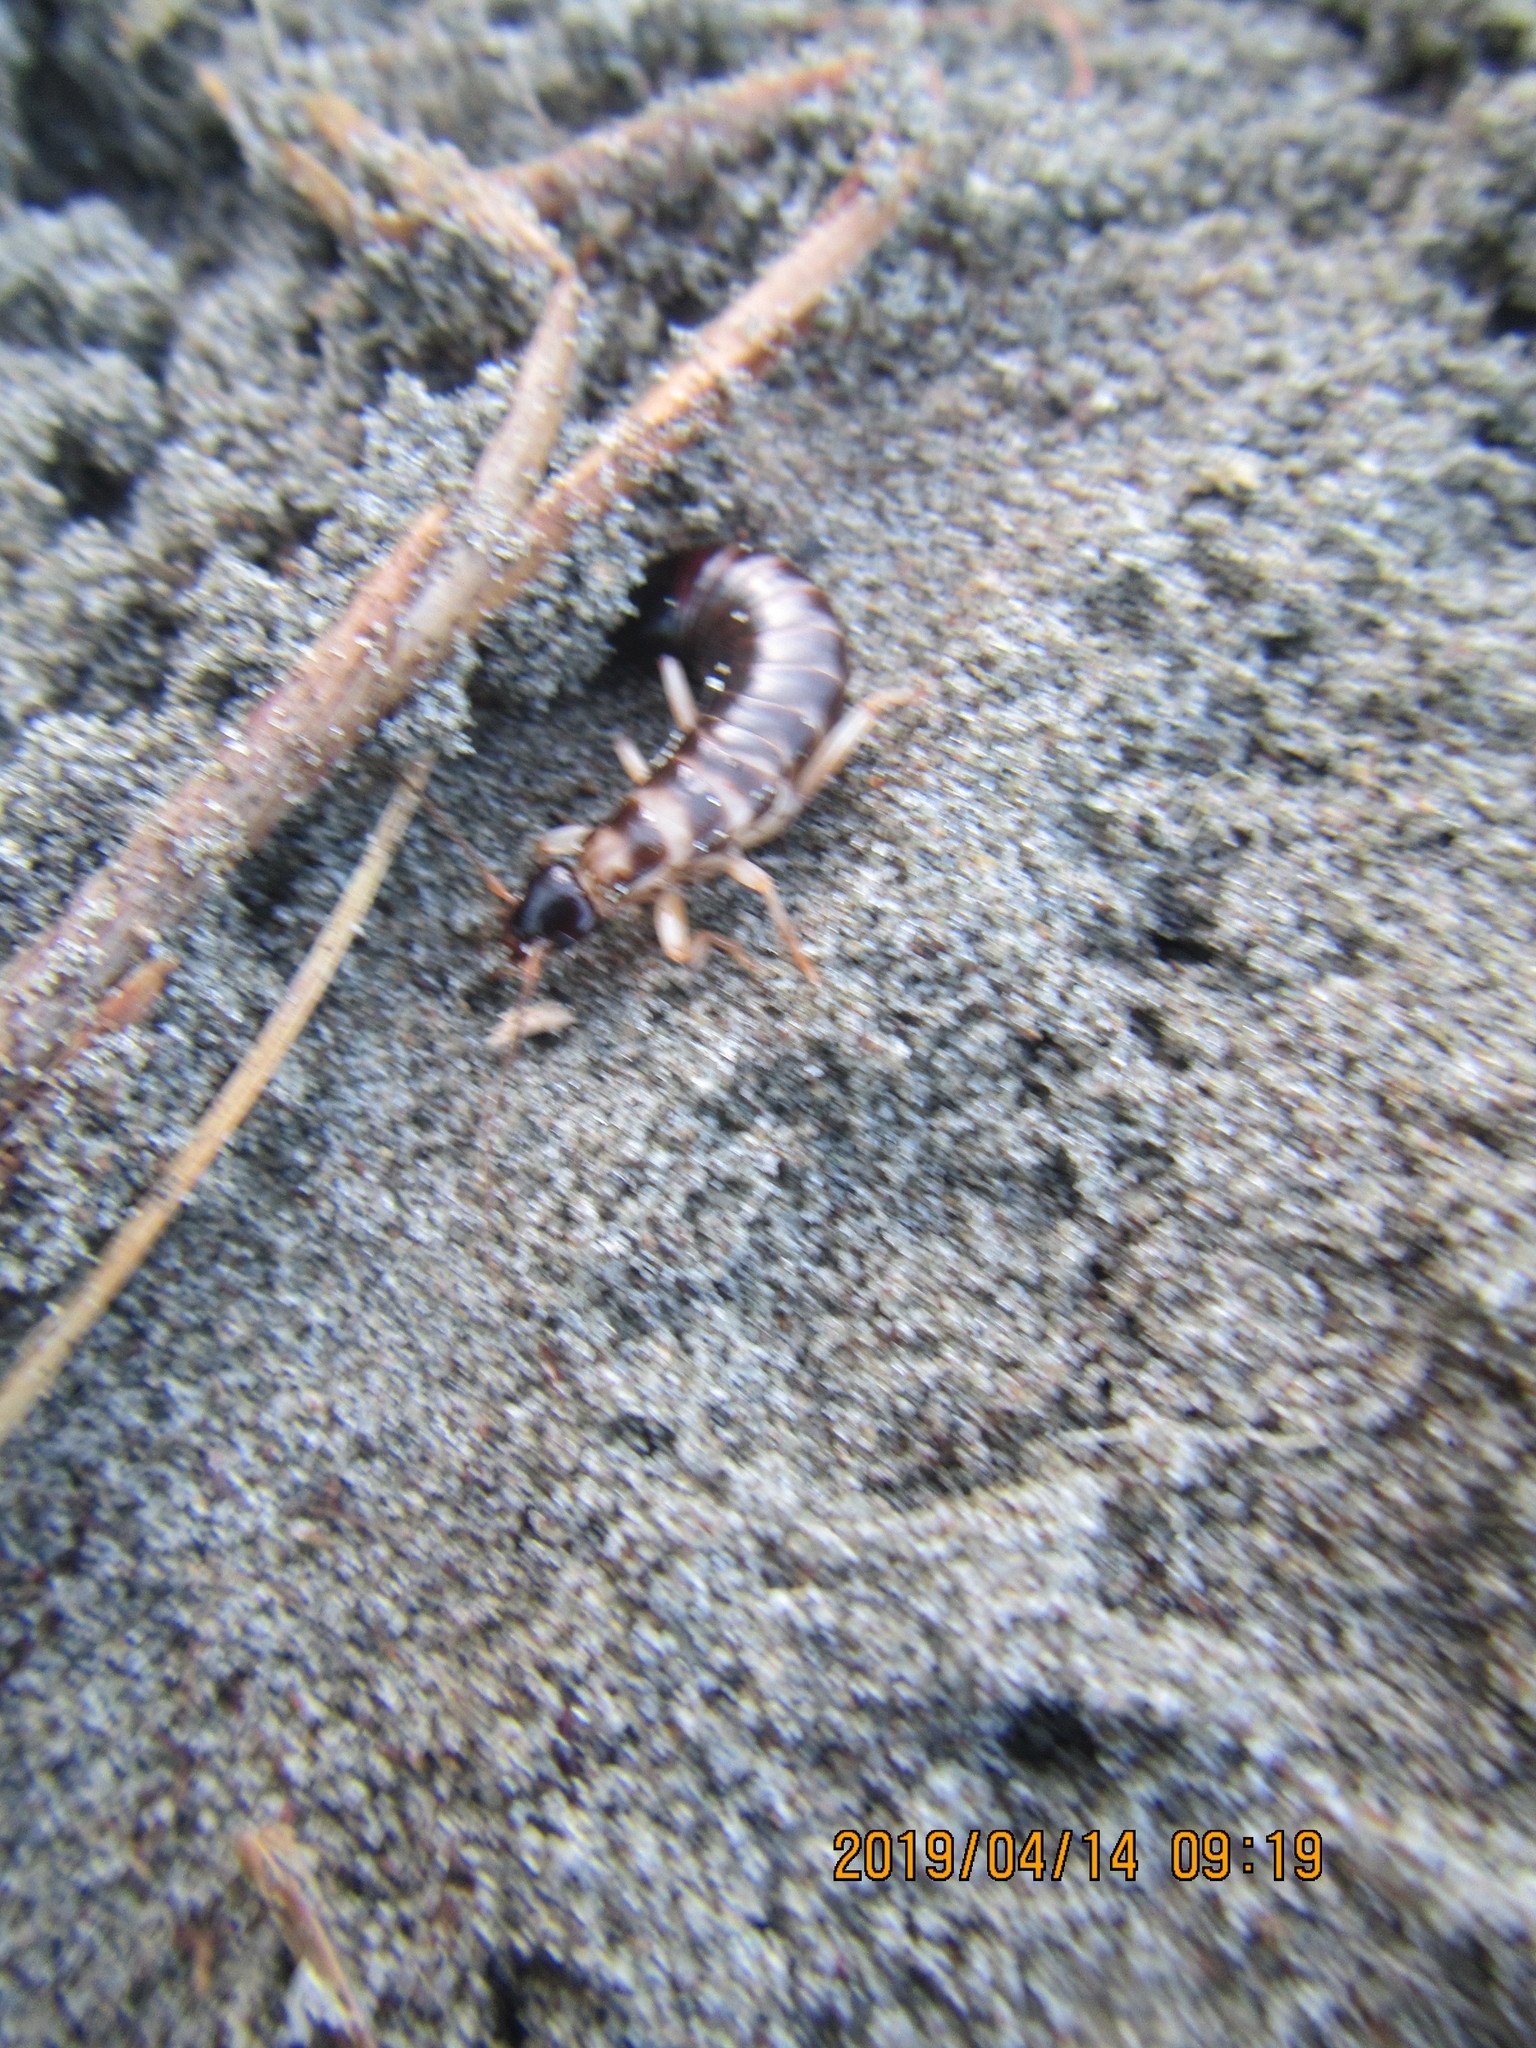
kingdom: Animalia
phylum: Arthropoda
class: Insecta
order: Dermaptera
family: Anisolabididae
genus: Anisolabis
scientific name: Anisolabis littorea
